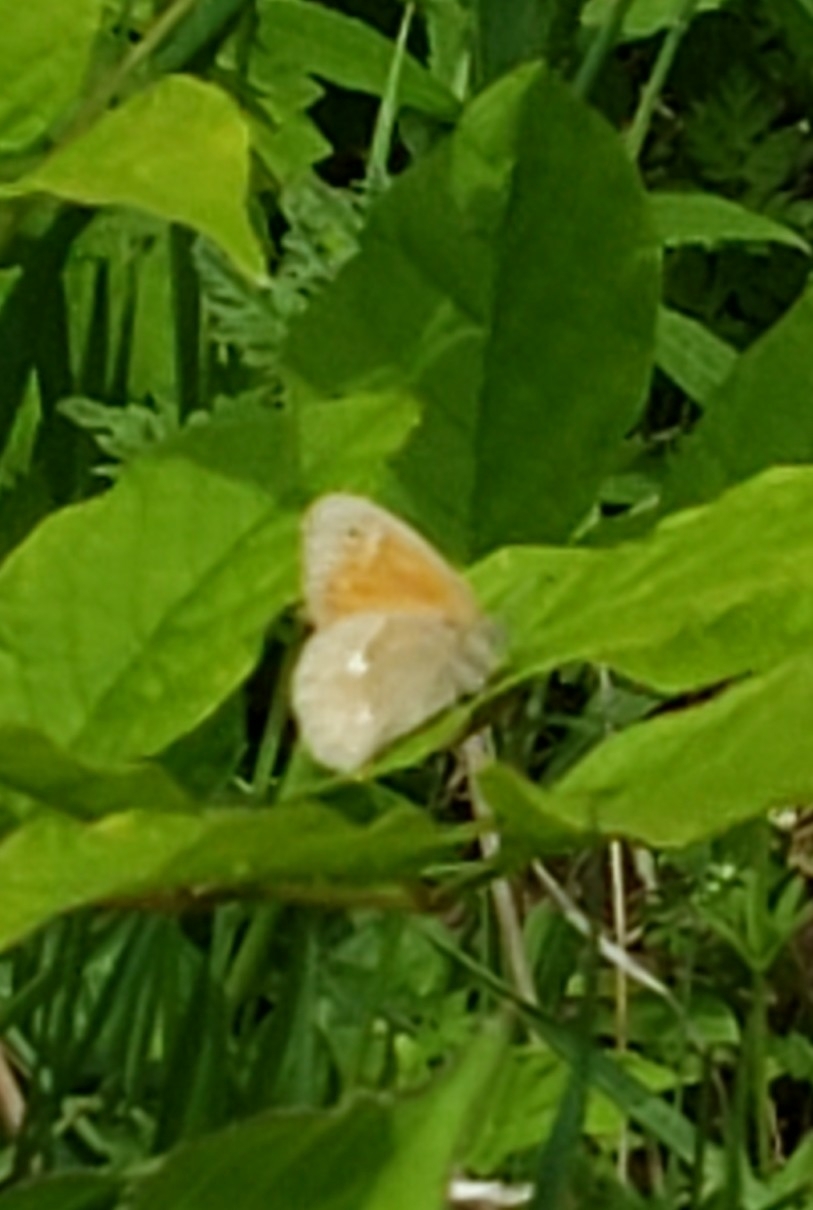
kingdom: Animalia
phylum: Arthropoda
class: Insecta
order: Lepidoptera
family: Nymphalidae
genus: Coenonympha
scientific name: Coenonympha california
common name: Common ringlet
